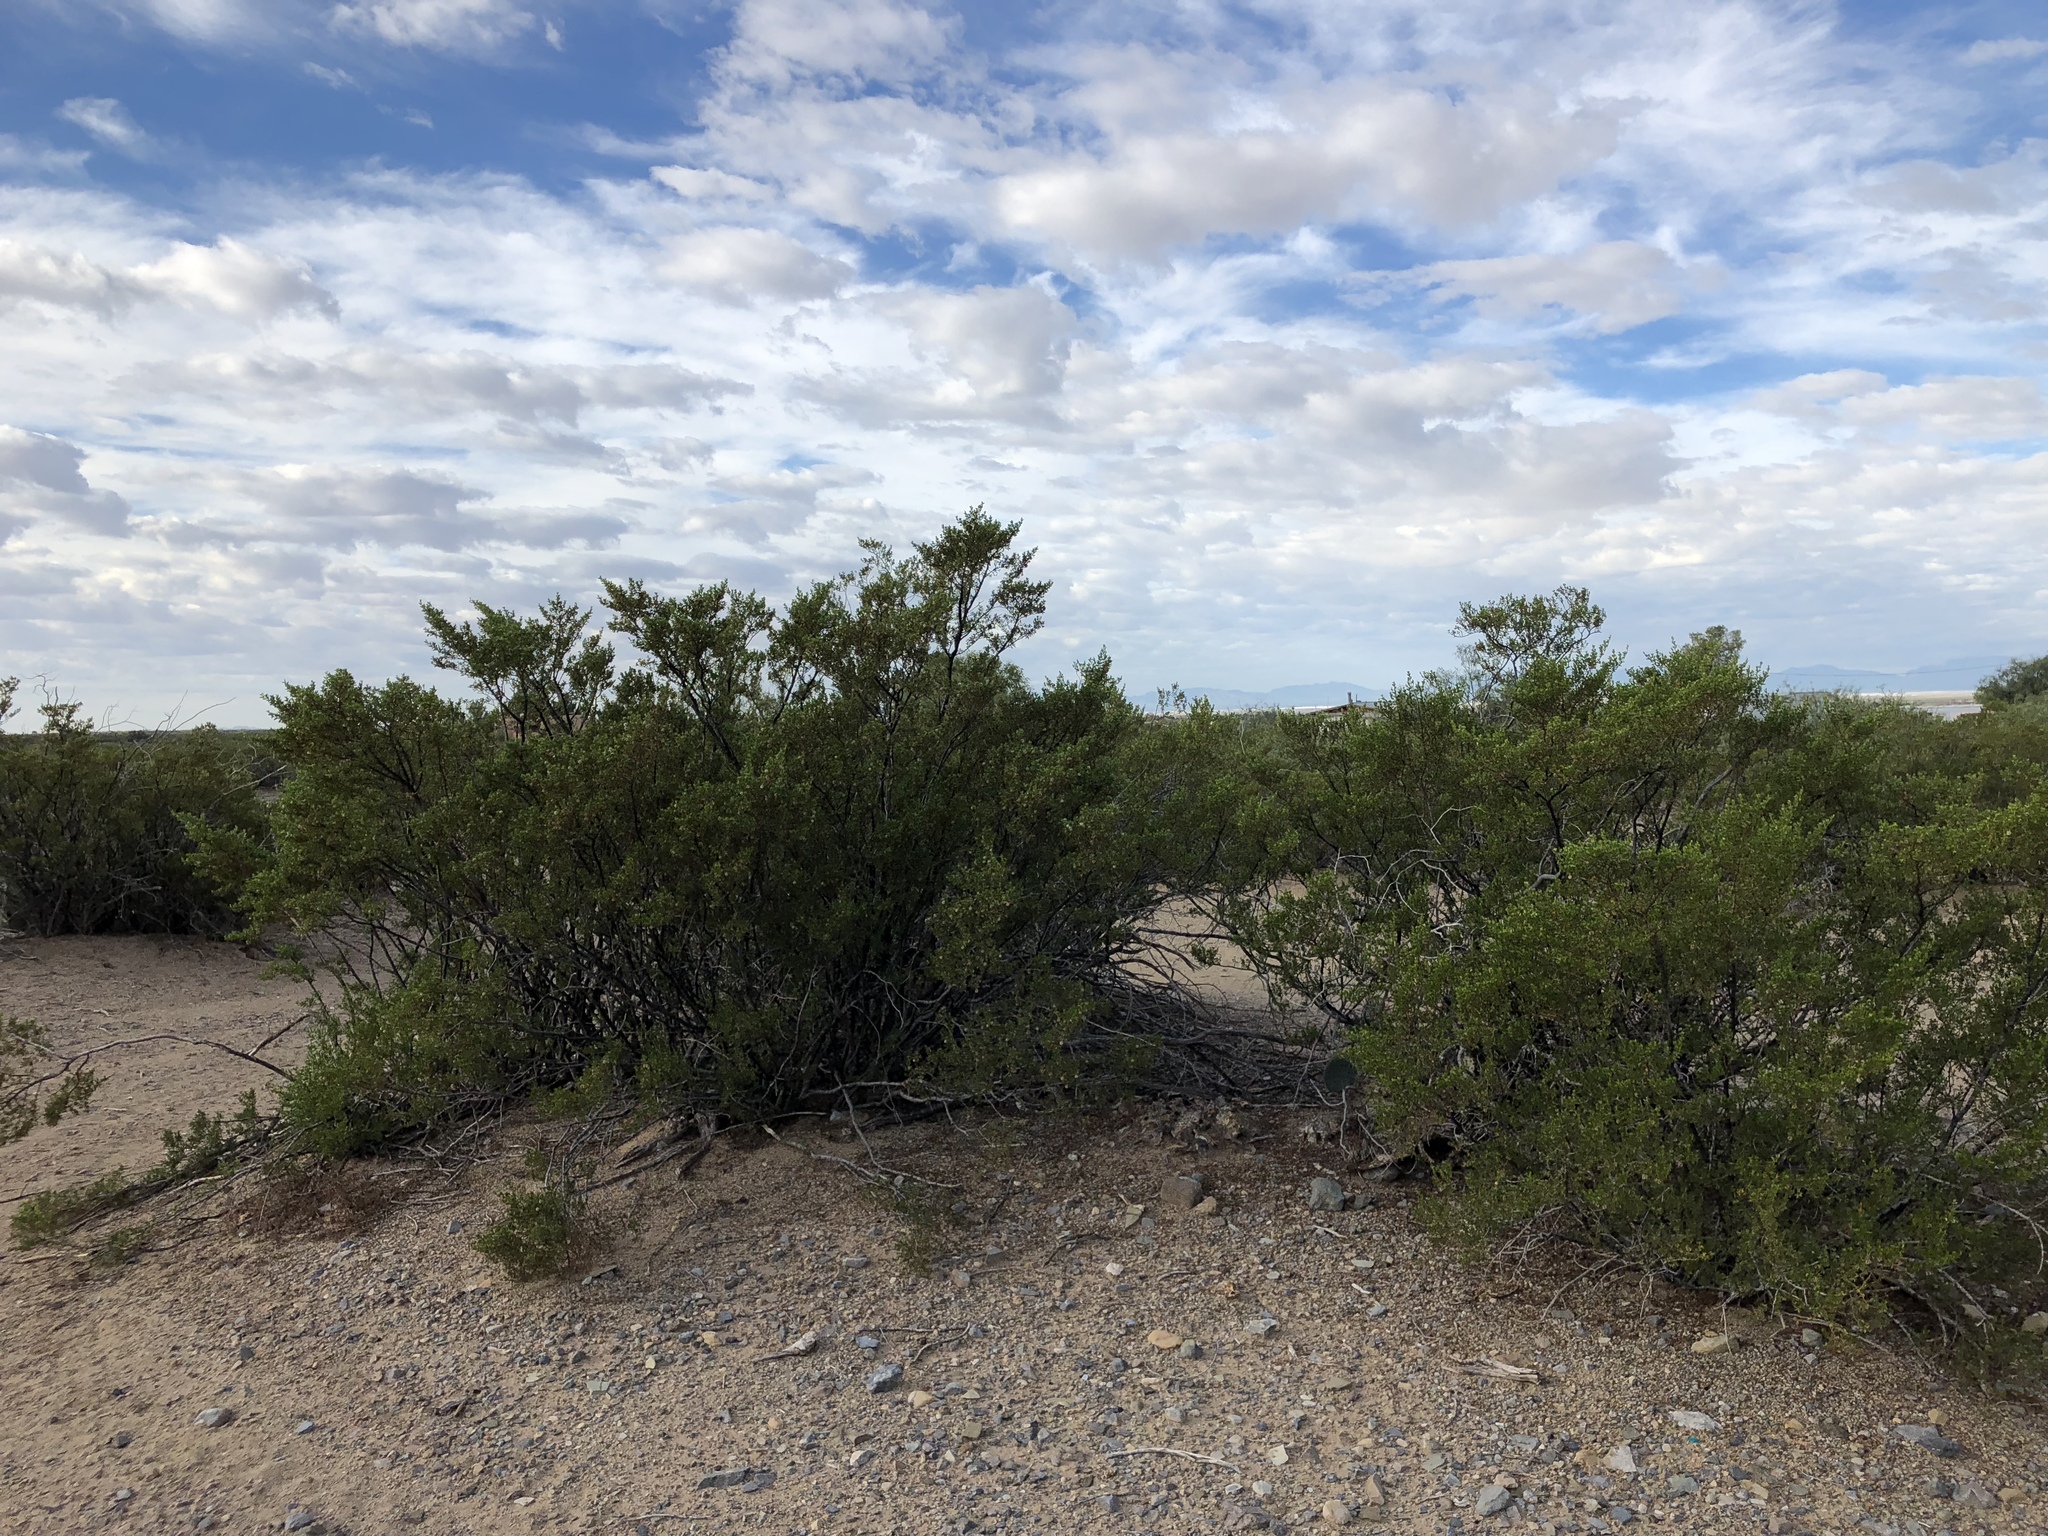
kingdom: Plantae
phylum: Tracheophyta
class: Magnoliopsida
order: Zygophyllales
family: Zygophyllaceae
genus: Larrea
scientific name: Larrea tridentata
